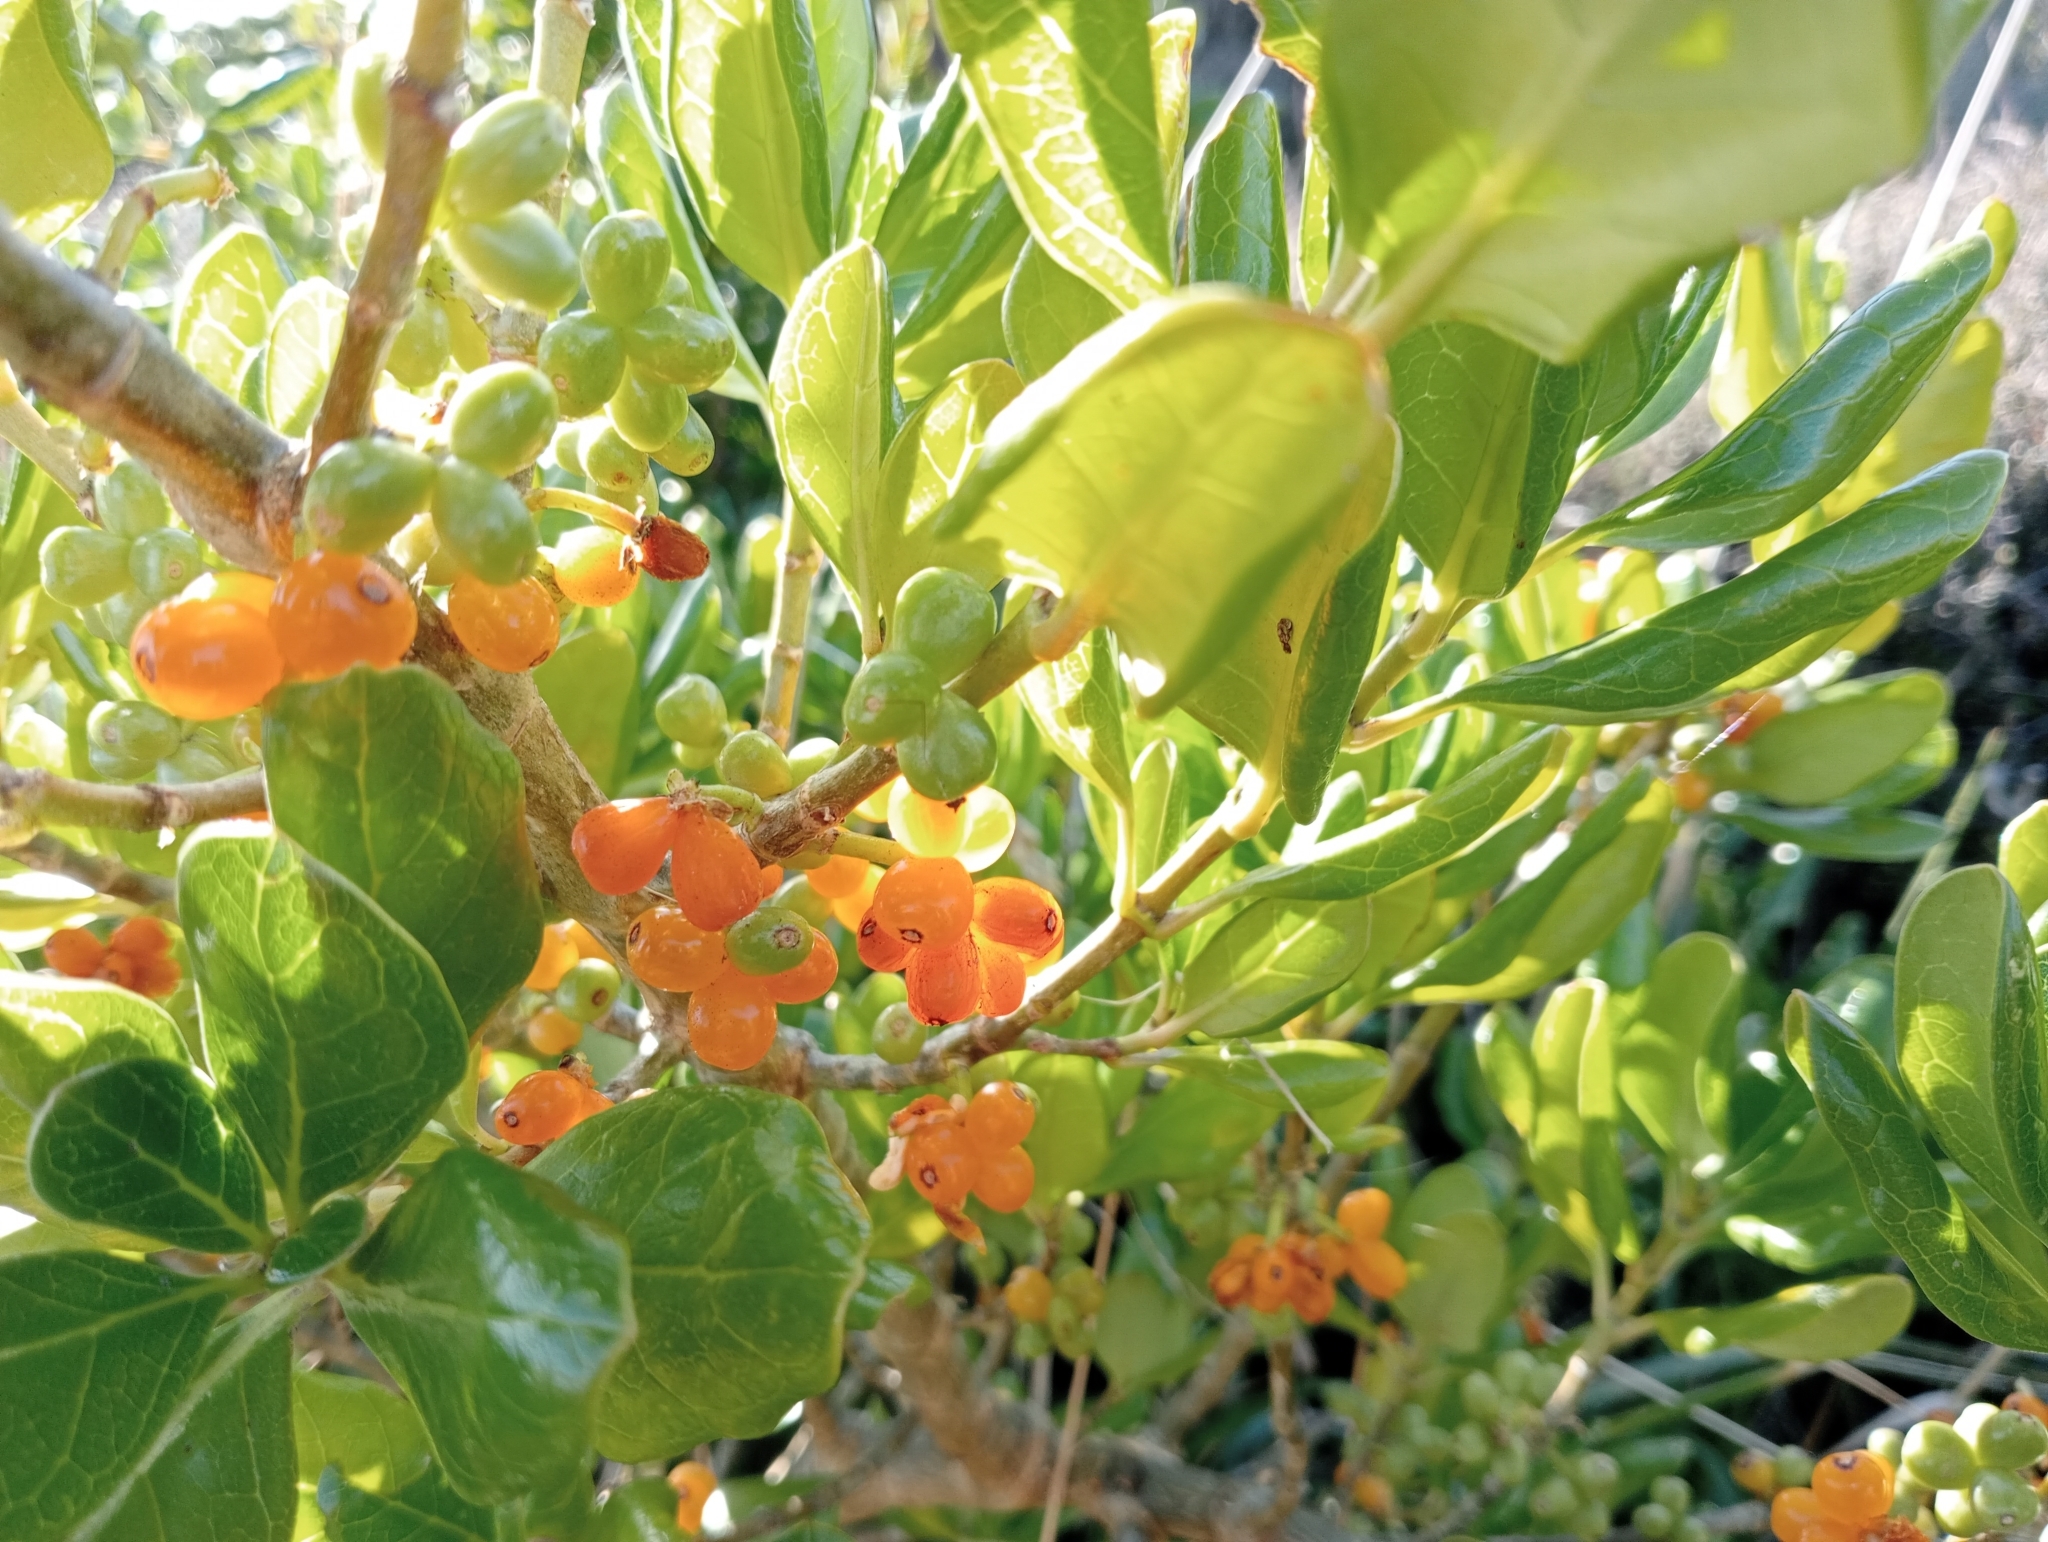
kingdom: Plantae
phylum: Tracheophyta
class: Magnoliopsida
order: Gentianales
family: Rubiaceae
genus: Coprosma
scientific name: Coprosma repens
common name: Tree bedstraw
